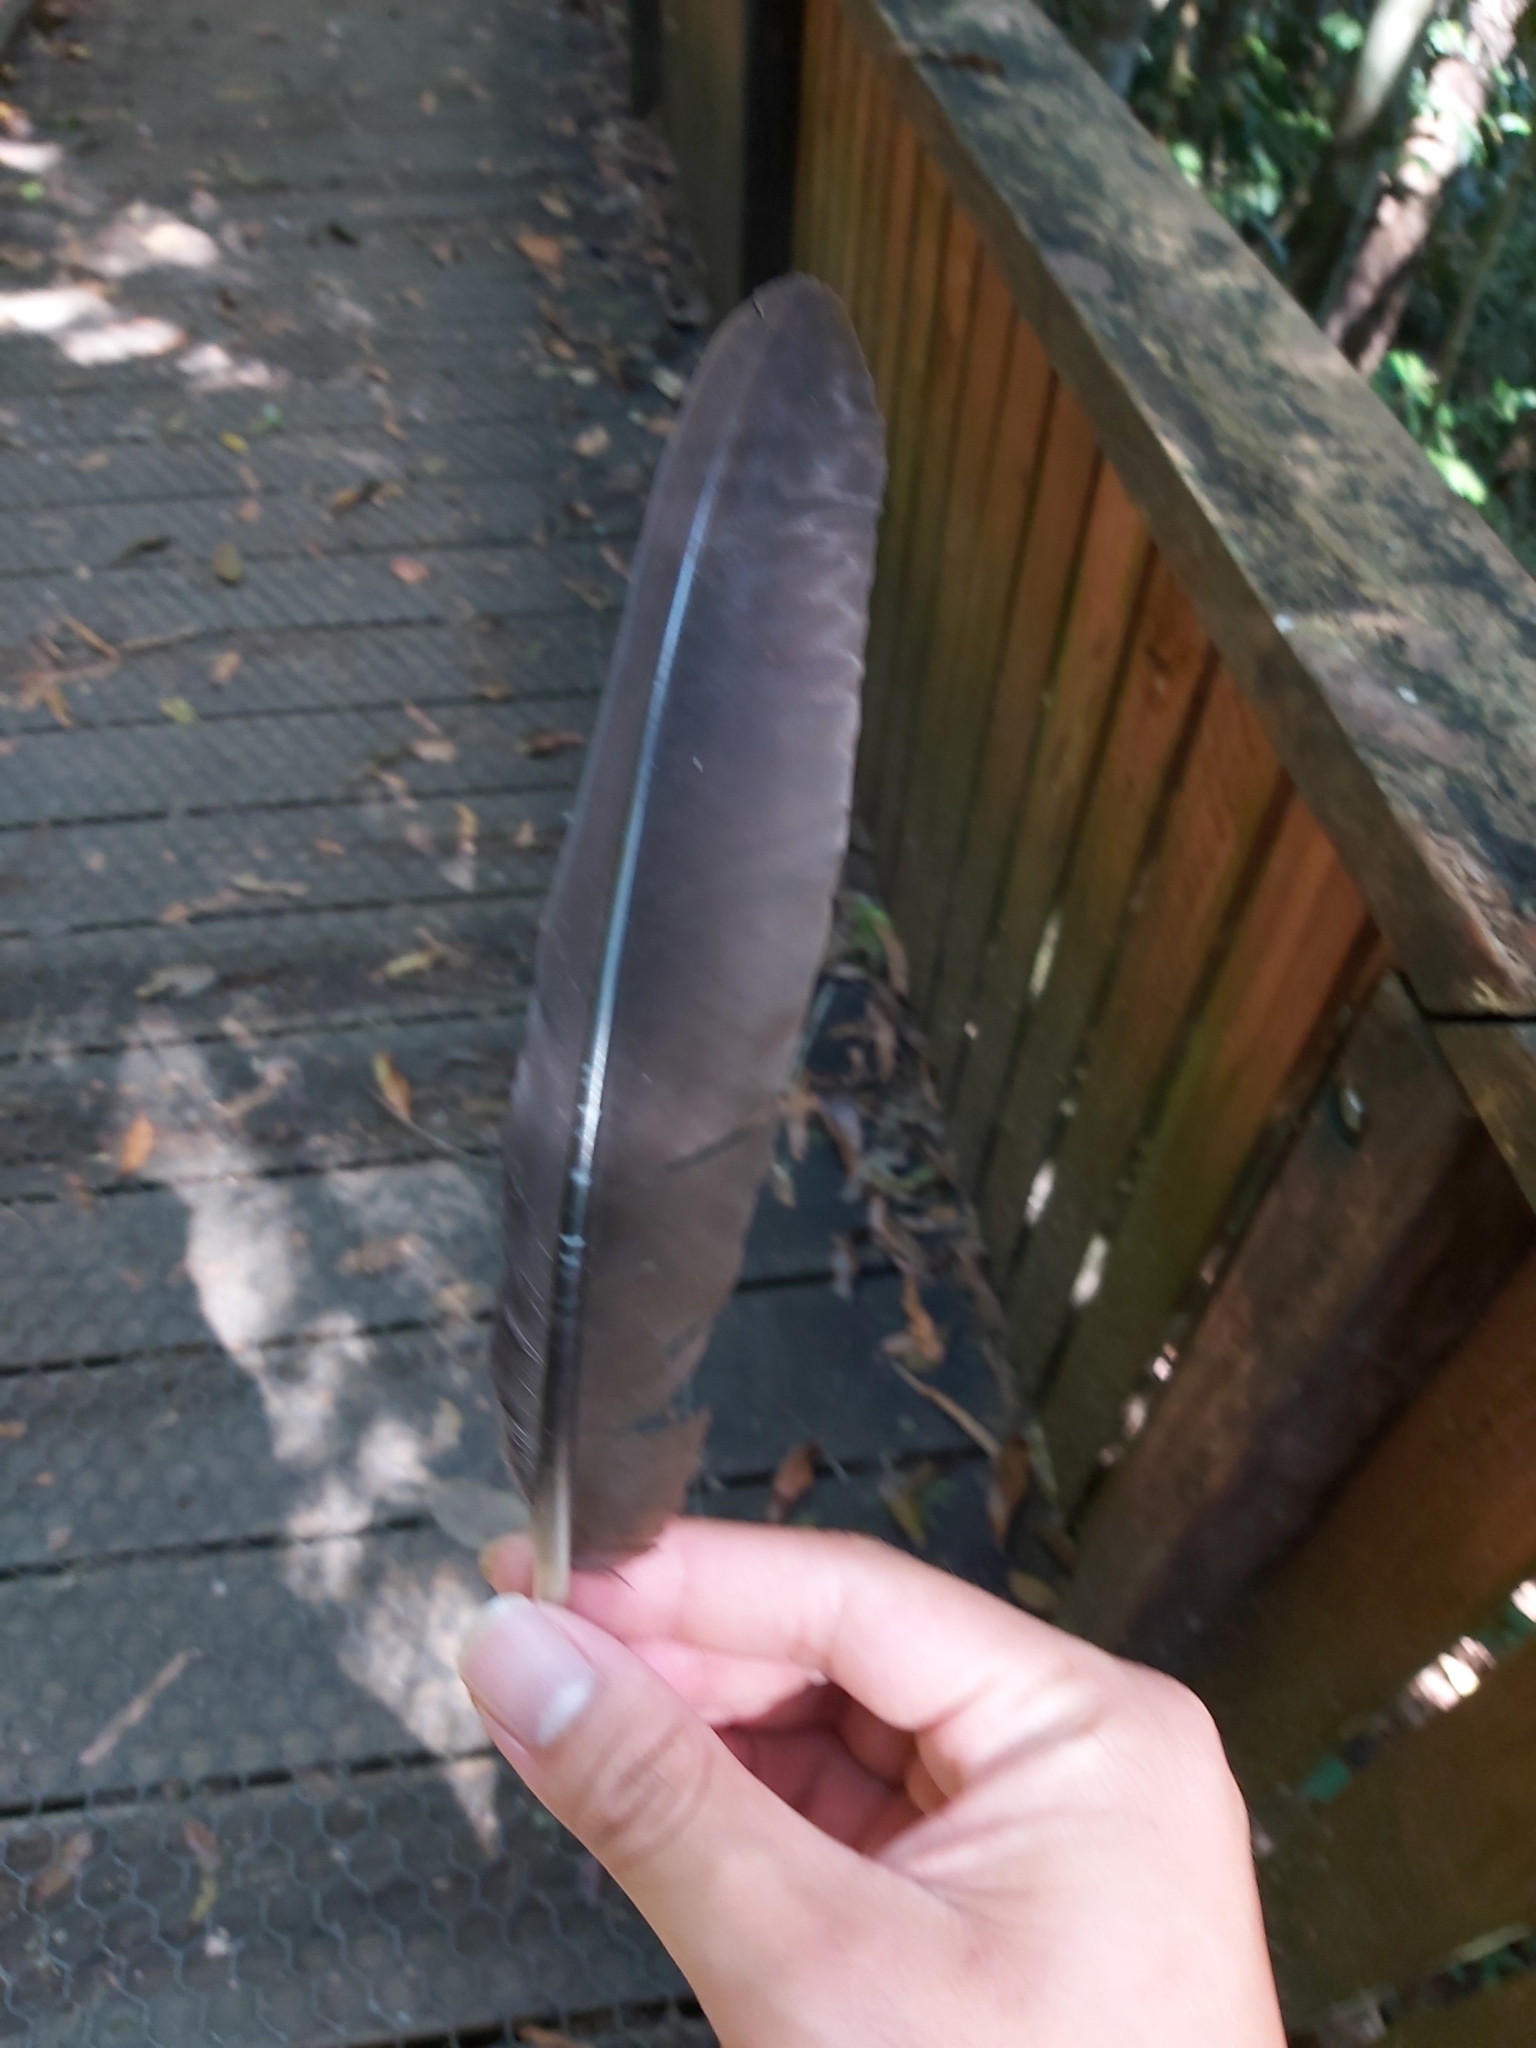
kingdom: Animalia
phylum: Chordata
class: Aves
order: Galliformes
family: Megapodiidae
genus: Alectura
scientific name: Alectura lathami
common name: Australian brushturkey
